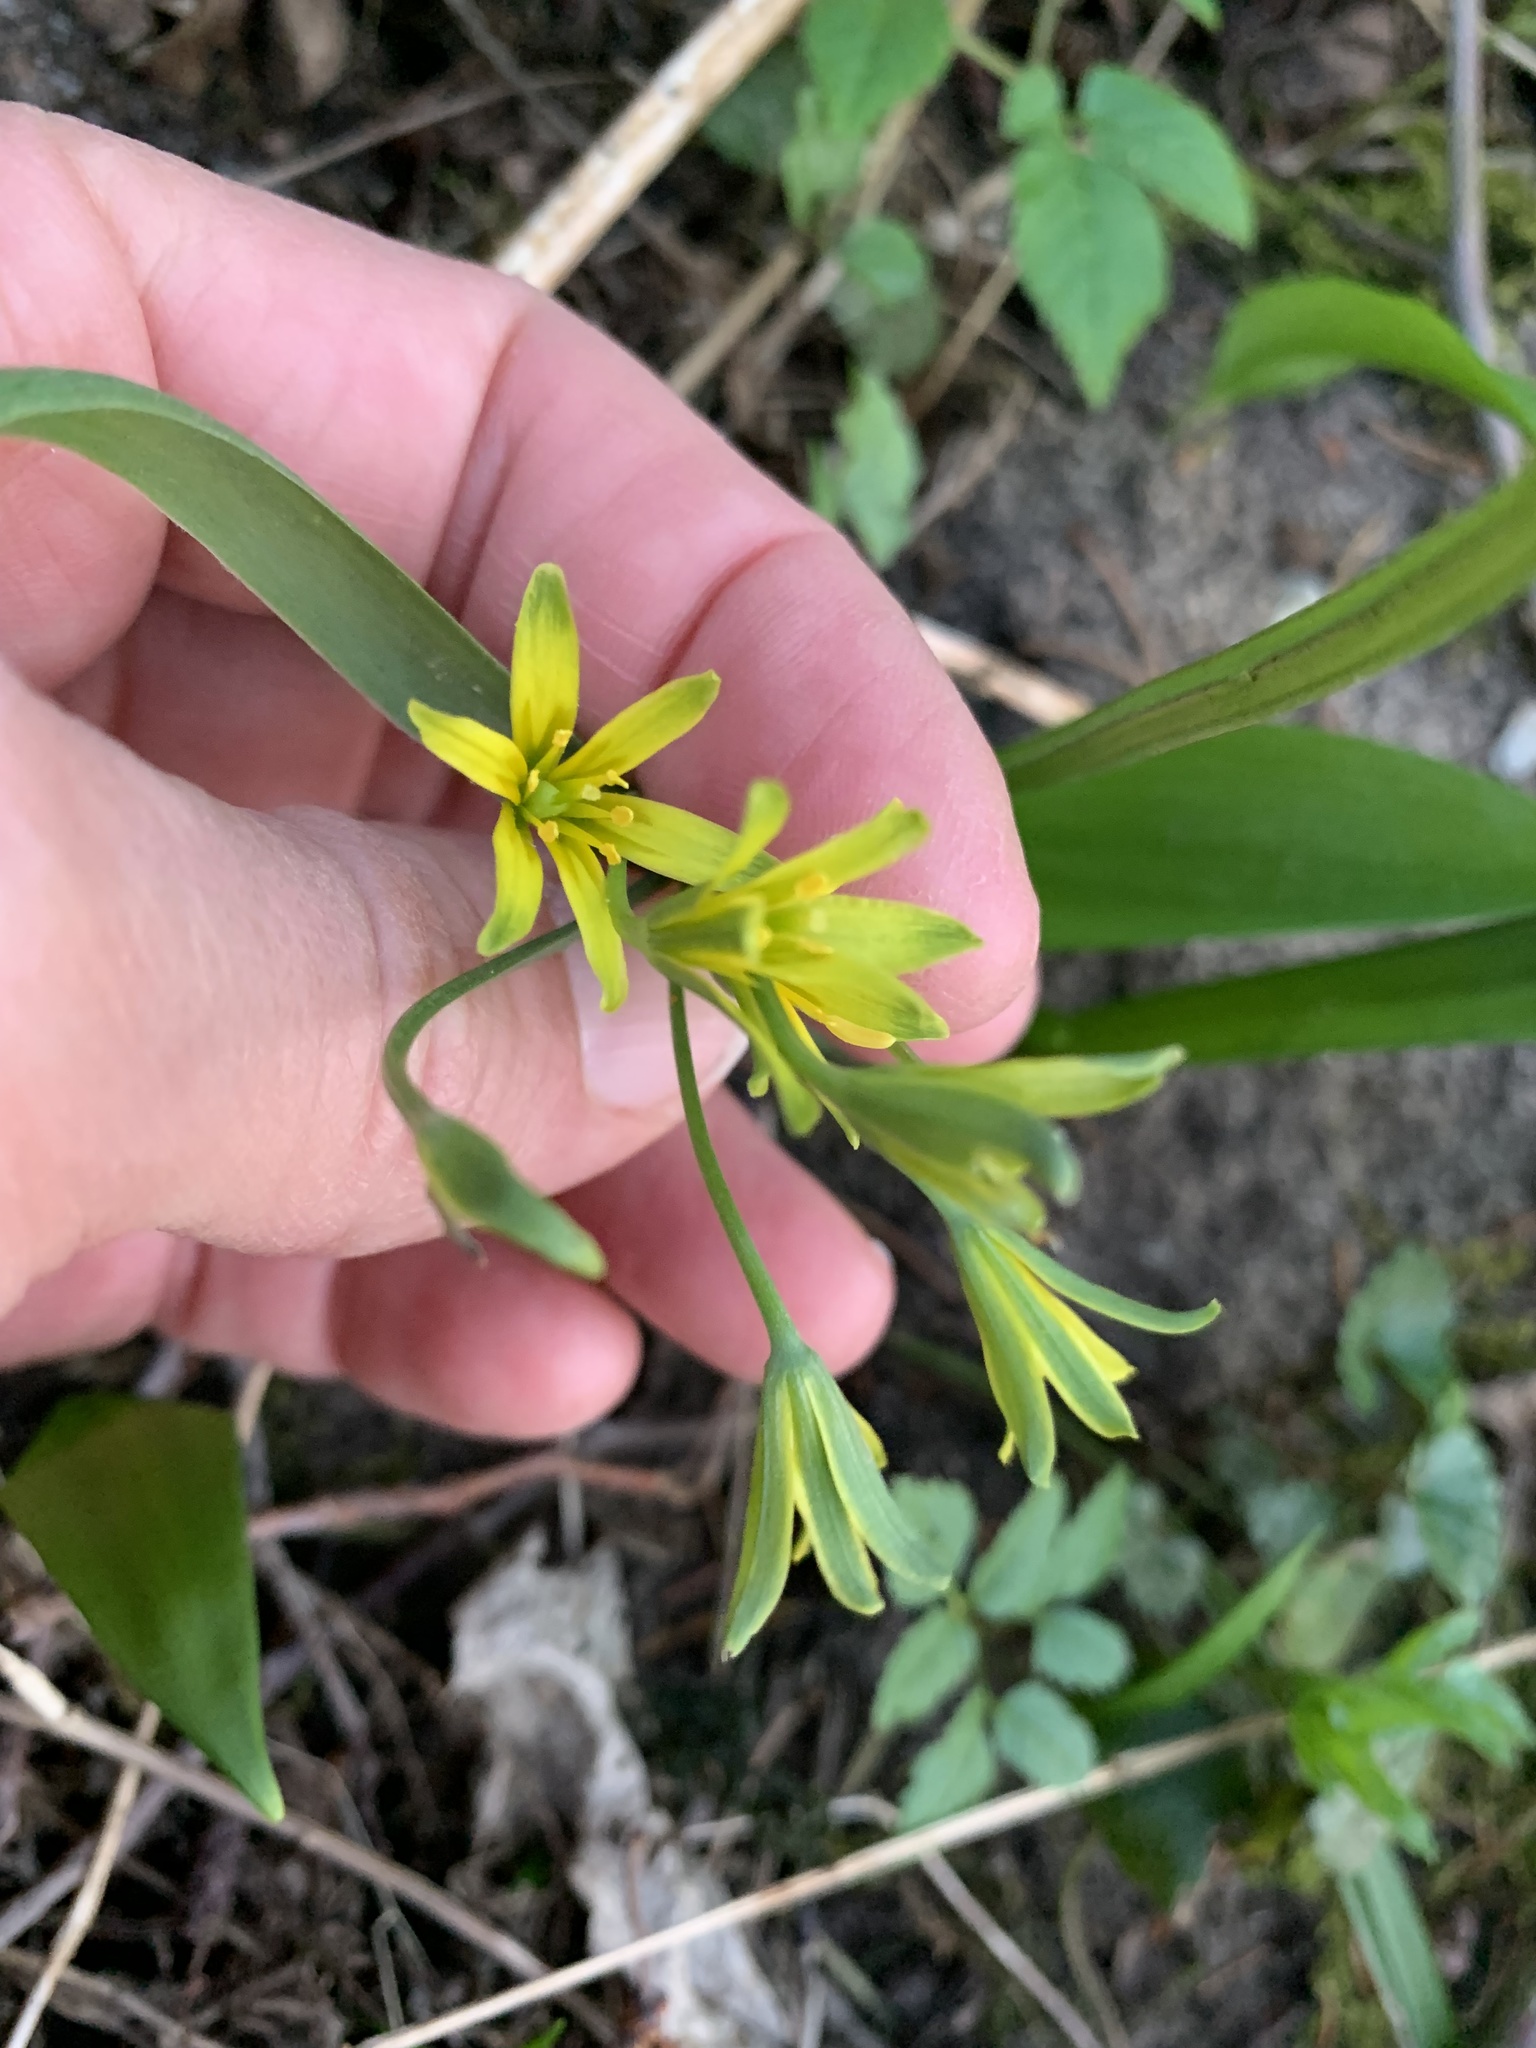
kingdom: Plantae
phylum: Tracheophyta
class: Liliopsida
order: Liliales
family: Liliaceae
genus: Gagea
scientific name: Gagea lutea
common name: Yellow star-of-bethlehem
